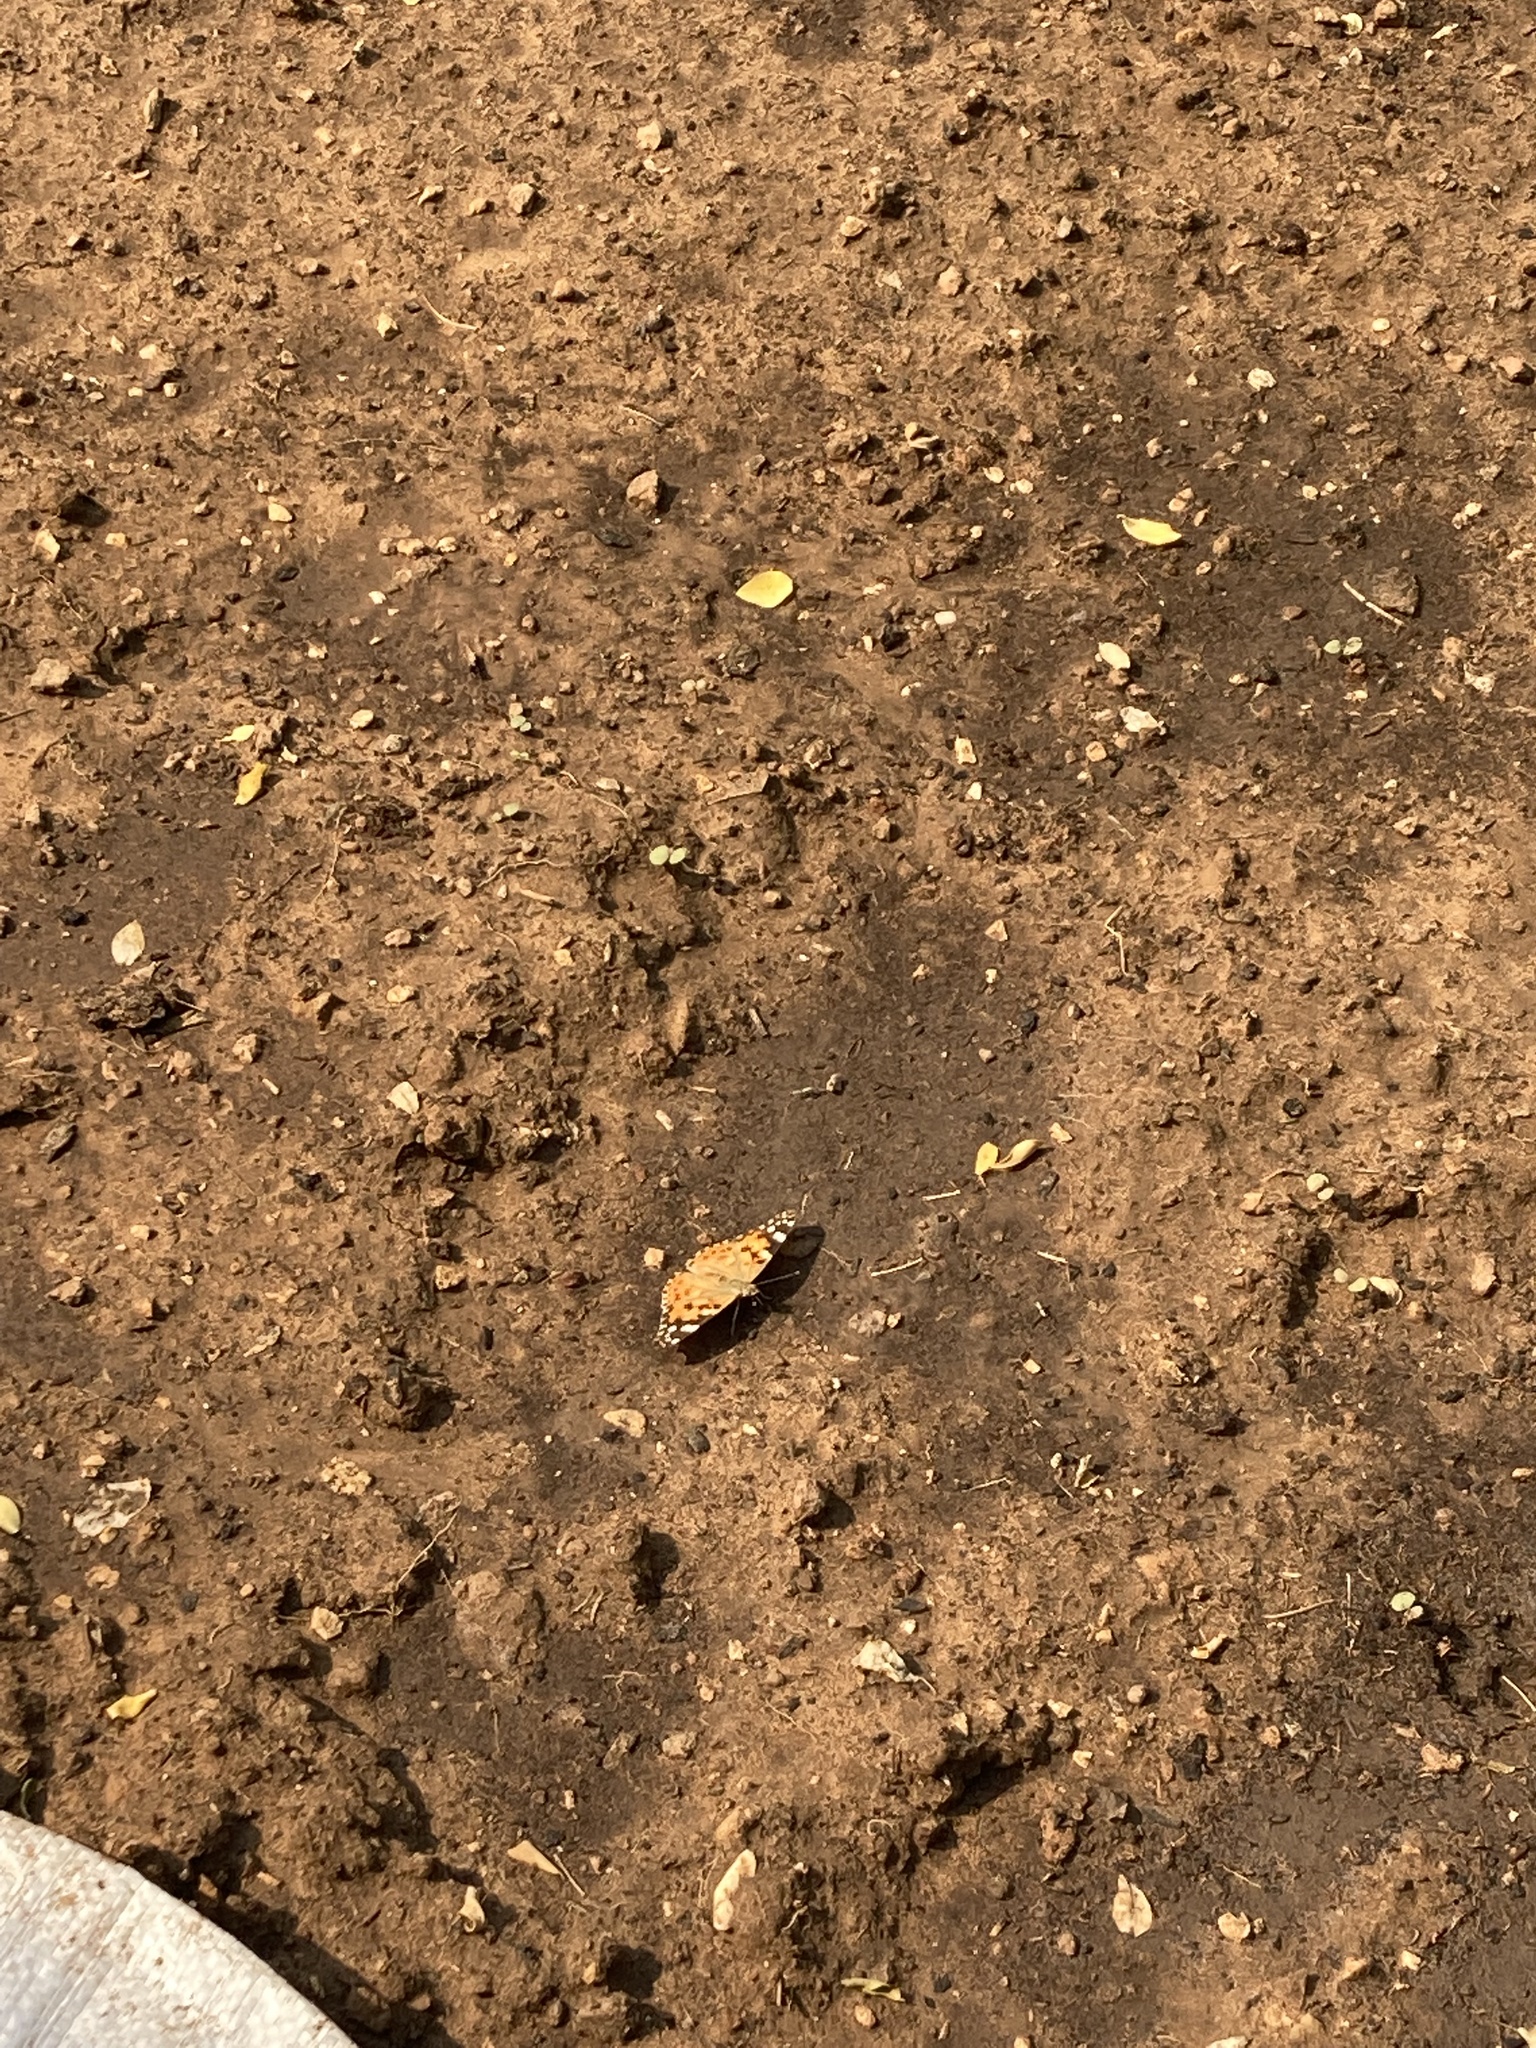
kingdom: Animalia
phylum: Arthropoda
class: Insecta
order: Lepidoptera
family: Nymphalidae
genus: Vanessa
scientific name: Vanessa cardui
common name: Painted lady
